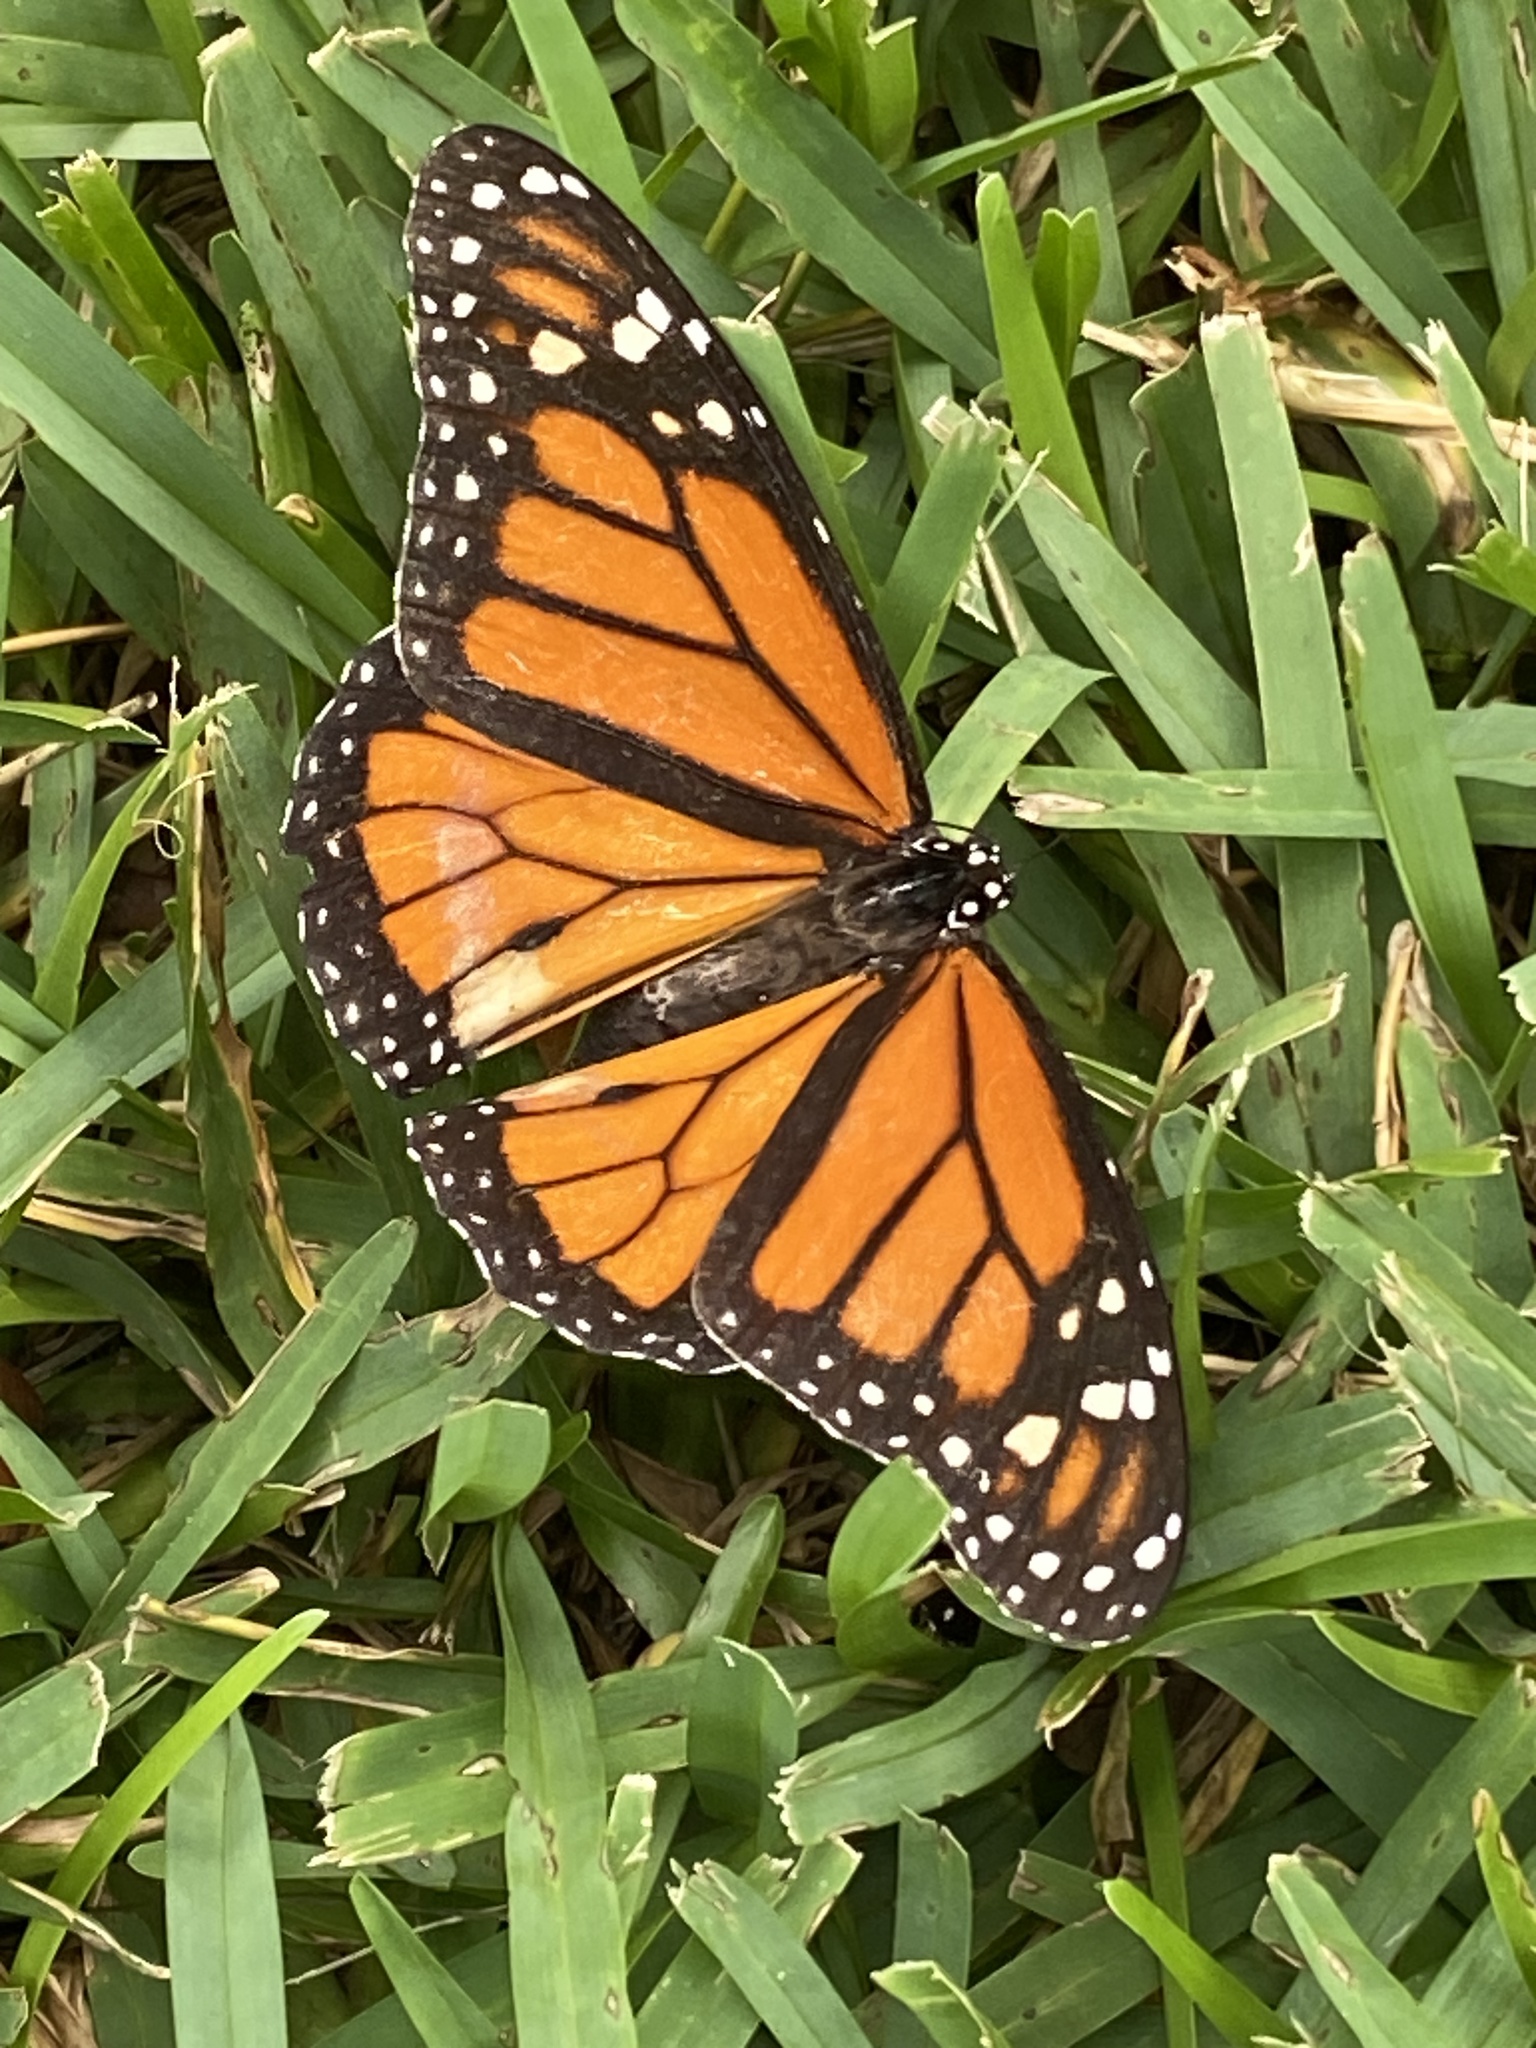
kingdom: Animalia
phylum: Arthropoda
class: Insecta
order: Lepidoptera
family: Nymphalidae
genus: Danaus
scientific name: Danaus plexippus
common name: Monarch
